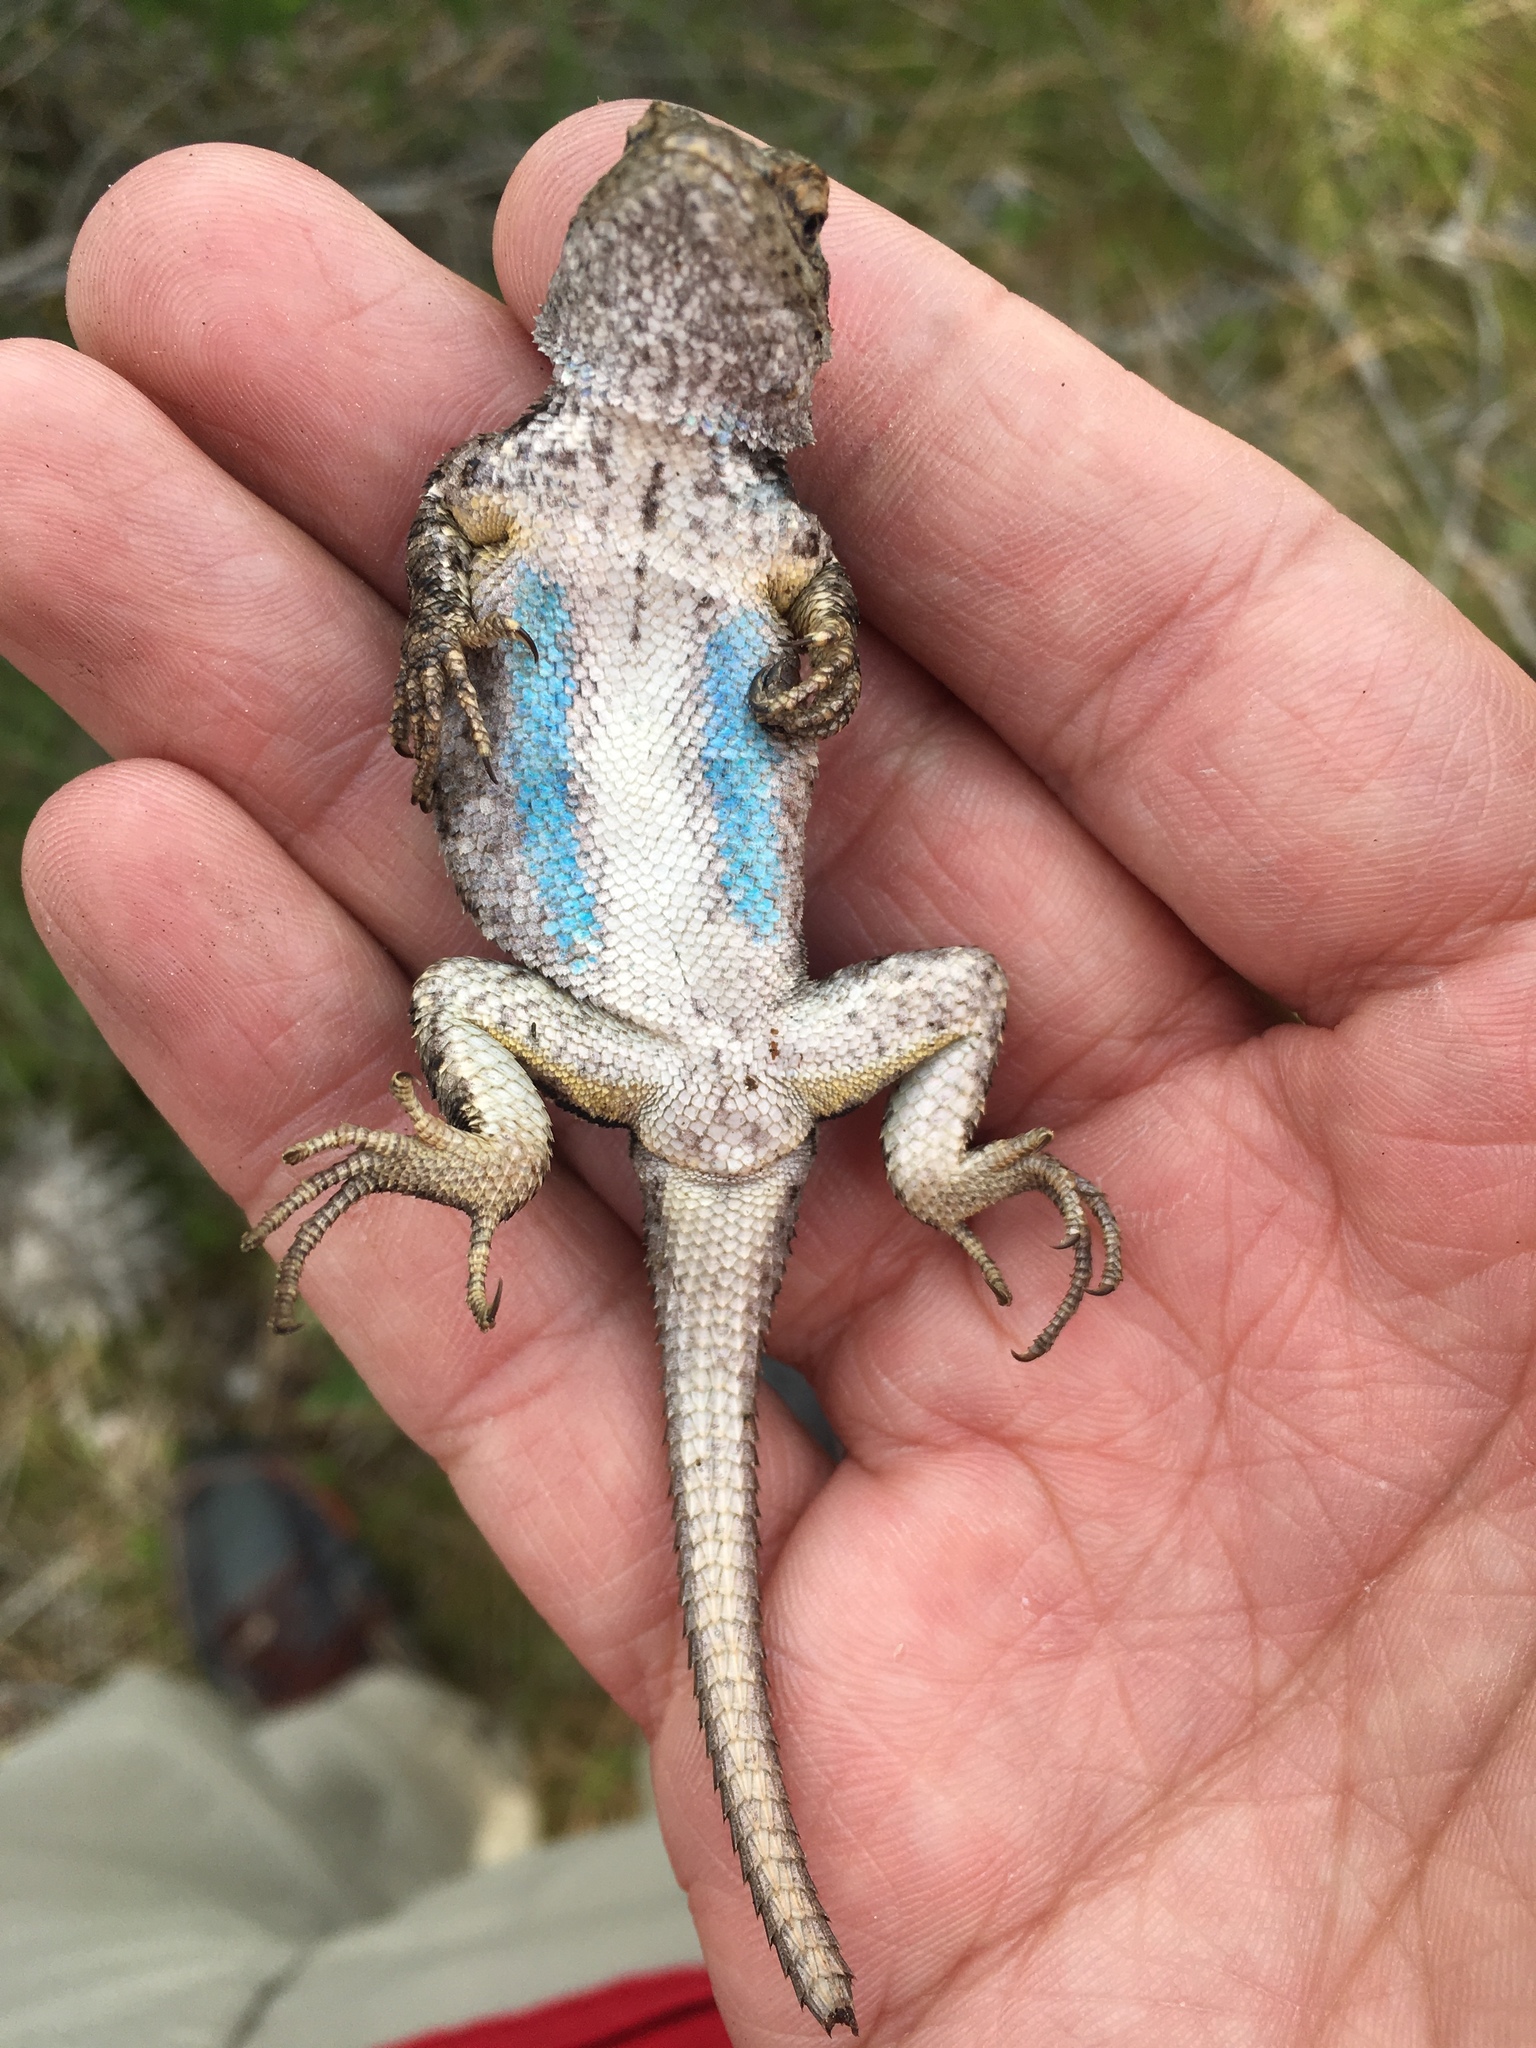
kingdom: Animalia
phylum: Chordata
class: Squamata
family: Phrynosomatidae
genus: Sceloporus
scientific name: Sceloporus occidentalis
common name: Western fence lizard
